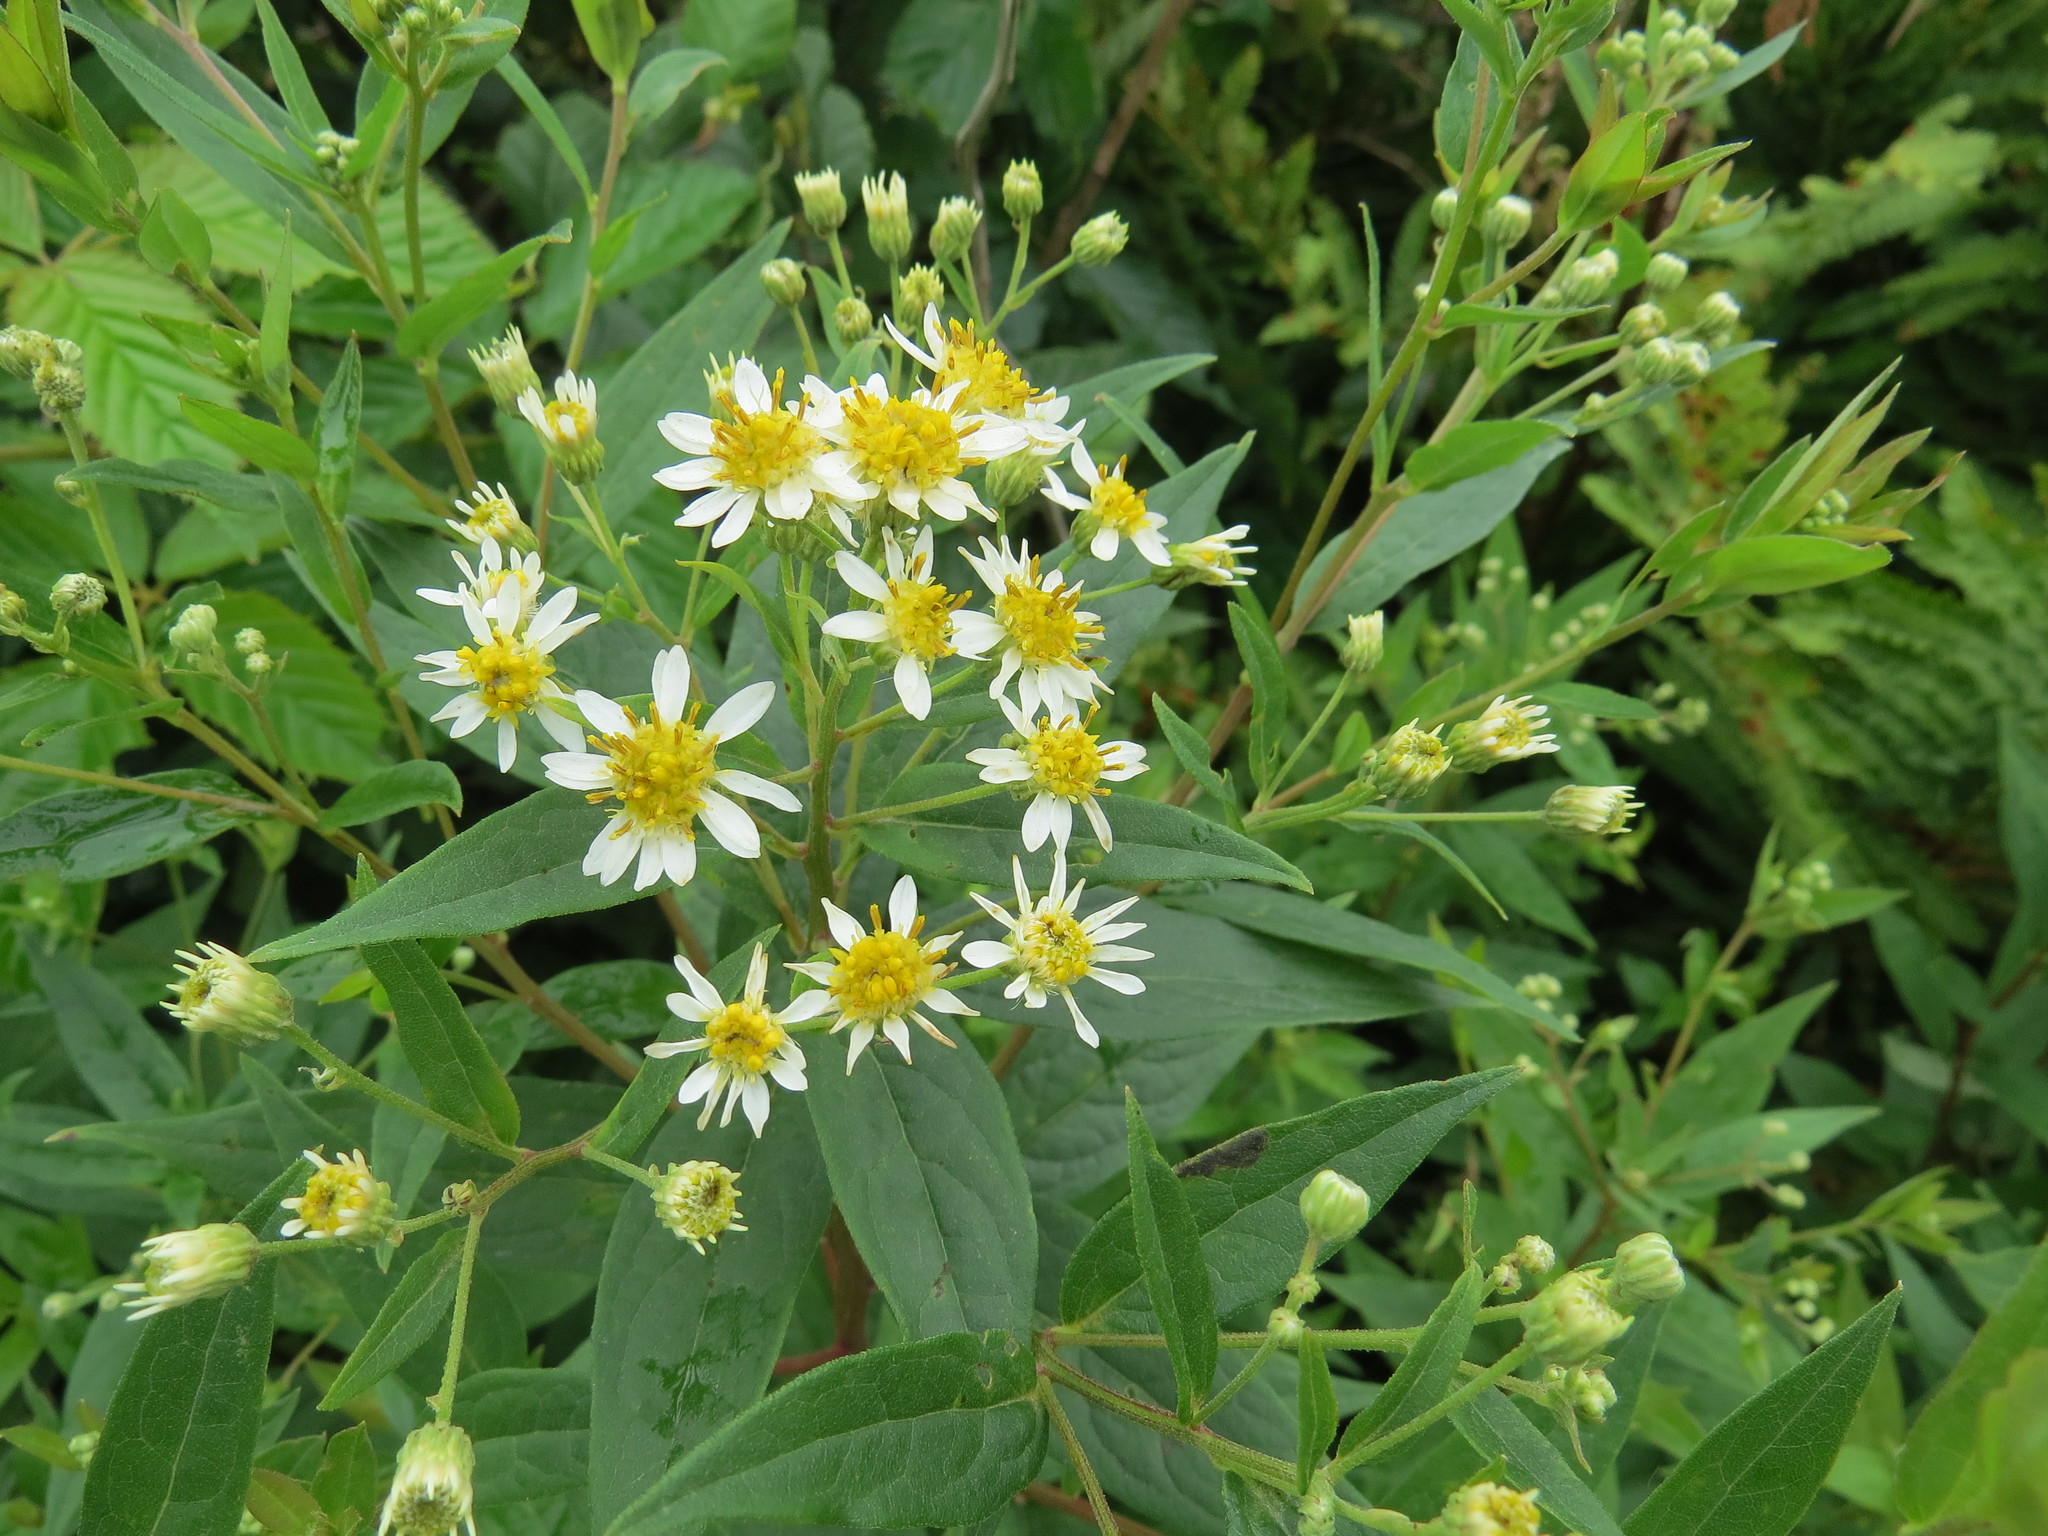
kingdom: Plantae
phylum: Tracheophyta
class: Magnoliopsida
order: Asterales
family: Asteraceae
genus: Doellingeria
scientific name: Doellingeria umbellata
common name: Flat-top white aster
